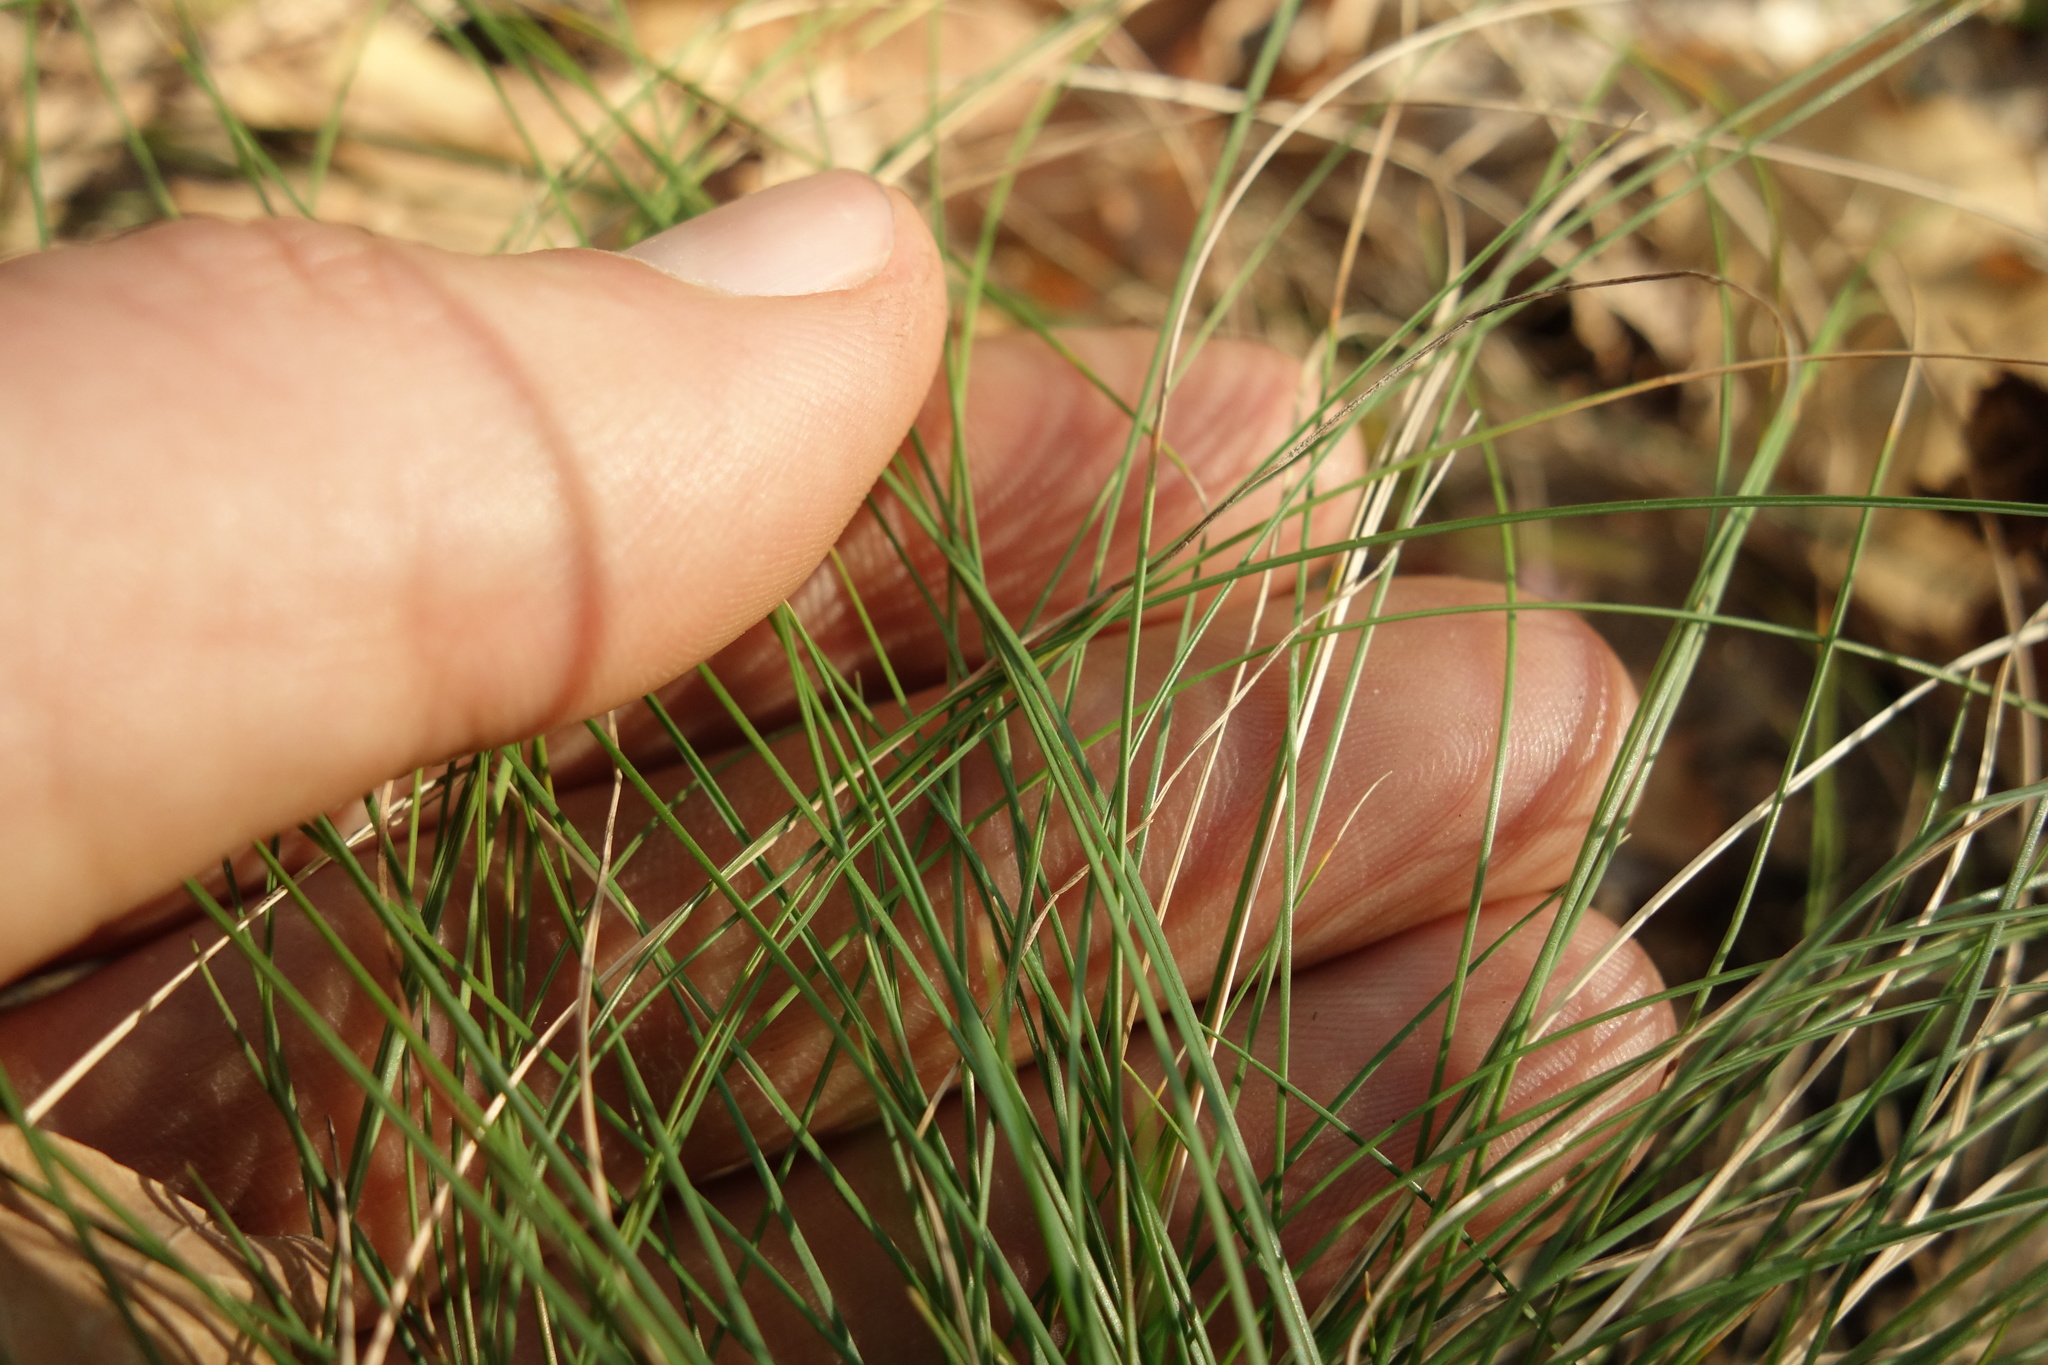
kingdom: Plantae
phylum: Tracheophyta
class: Liliopsida
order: Poales
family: Poaceae
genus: Festuca
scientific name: Festuca valesiaca
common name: Volga fescue
